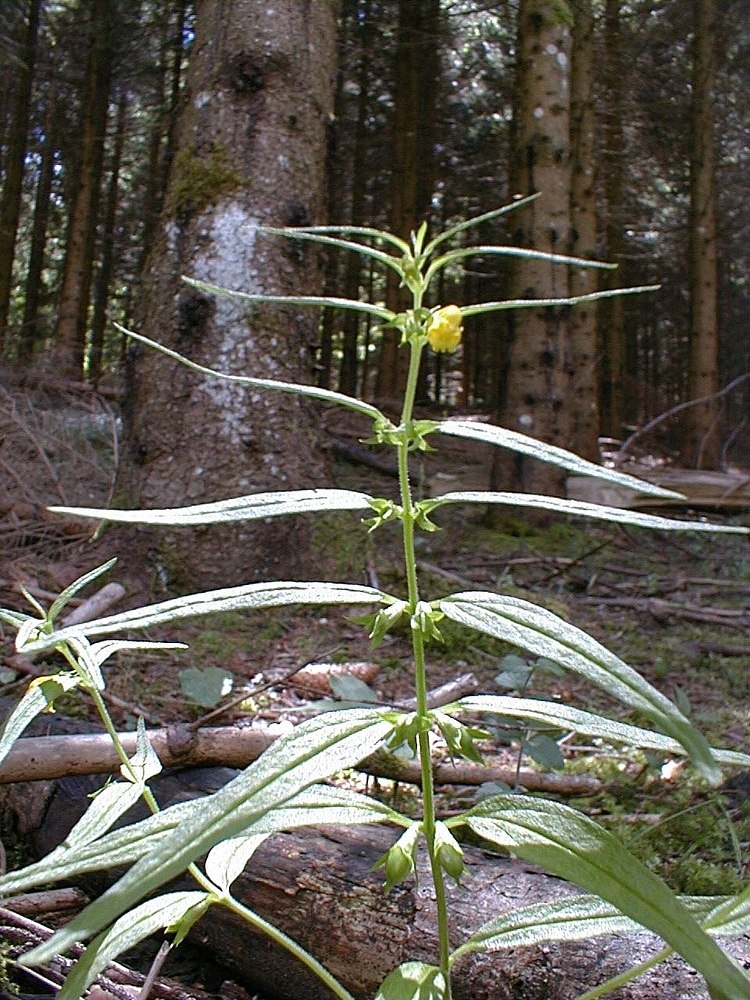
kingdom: Plantae
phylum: Tracheophyta
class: Magnoliopsida
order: Lamiales
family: Orobanchaceae
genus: Melampyrum
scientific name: Melampyrum sylvaticum
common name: Small cow-wheat
